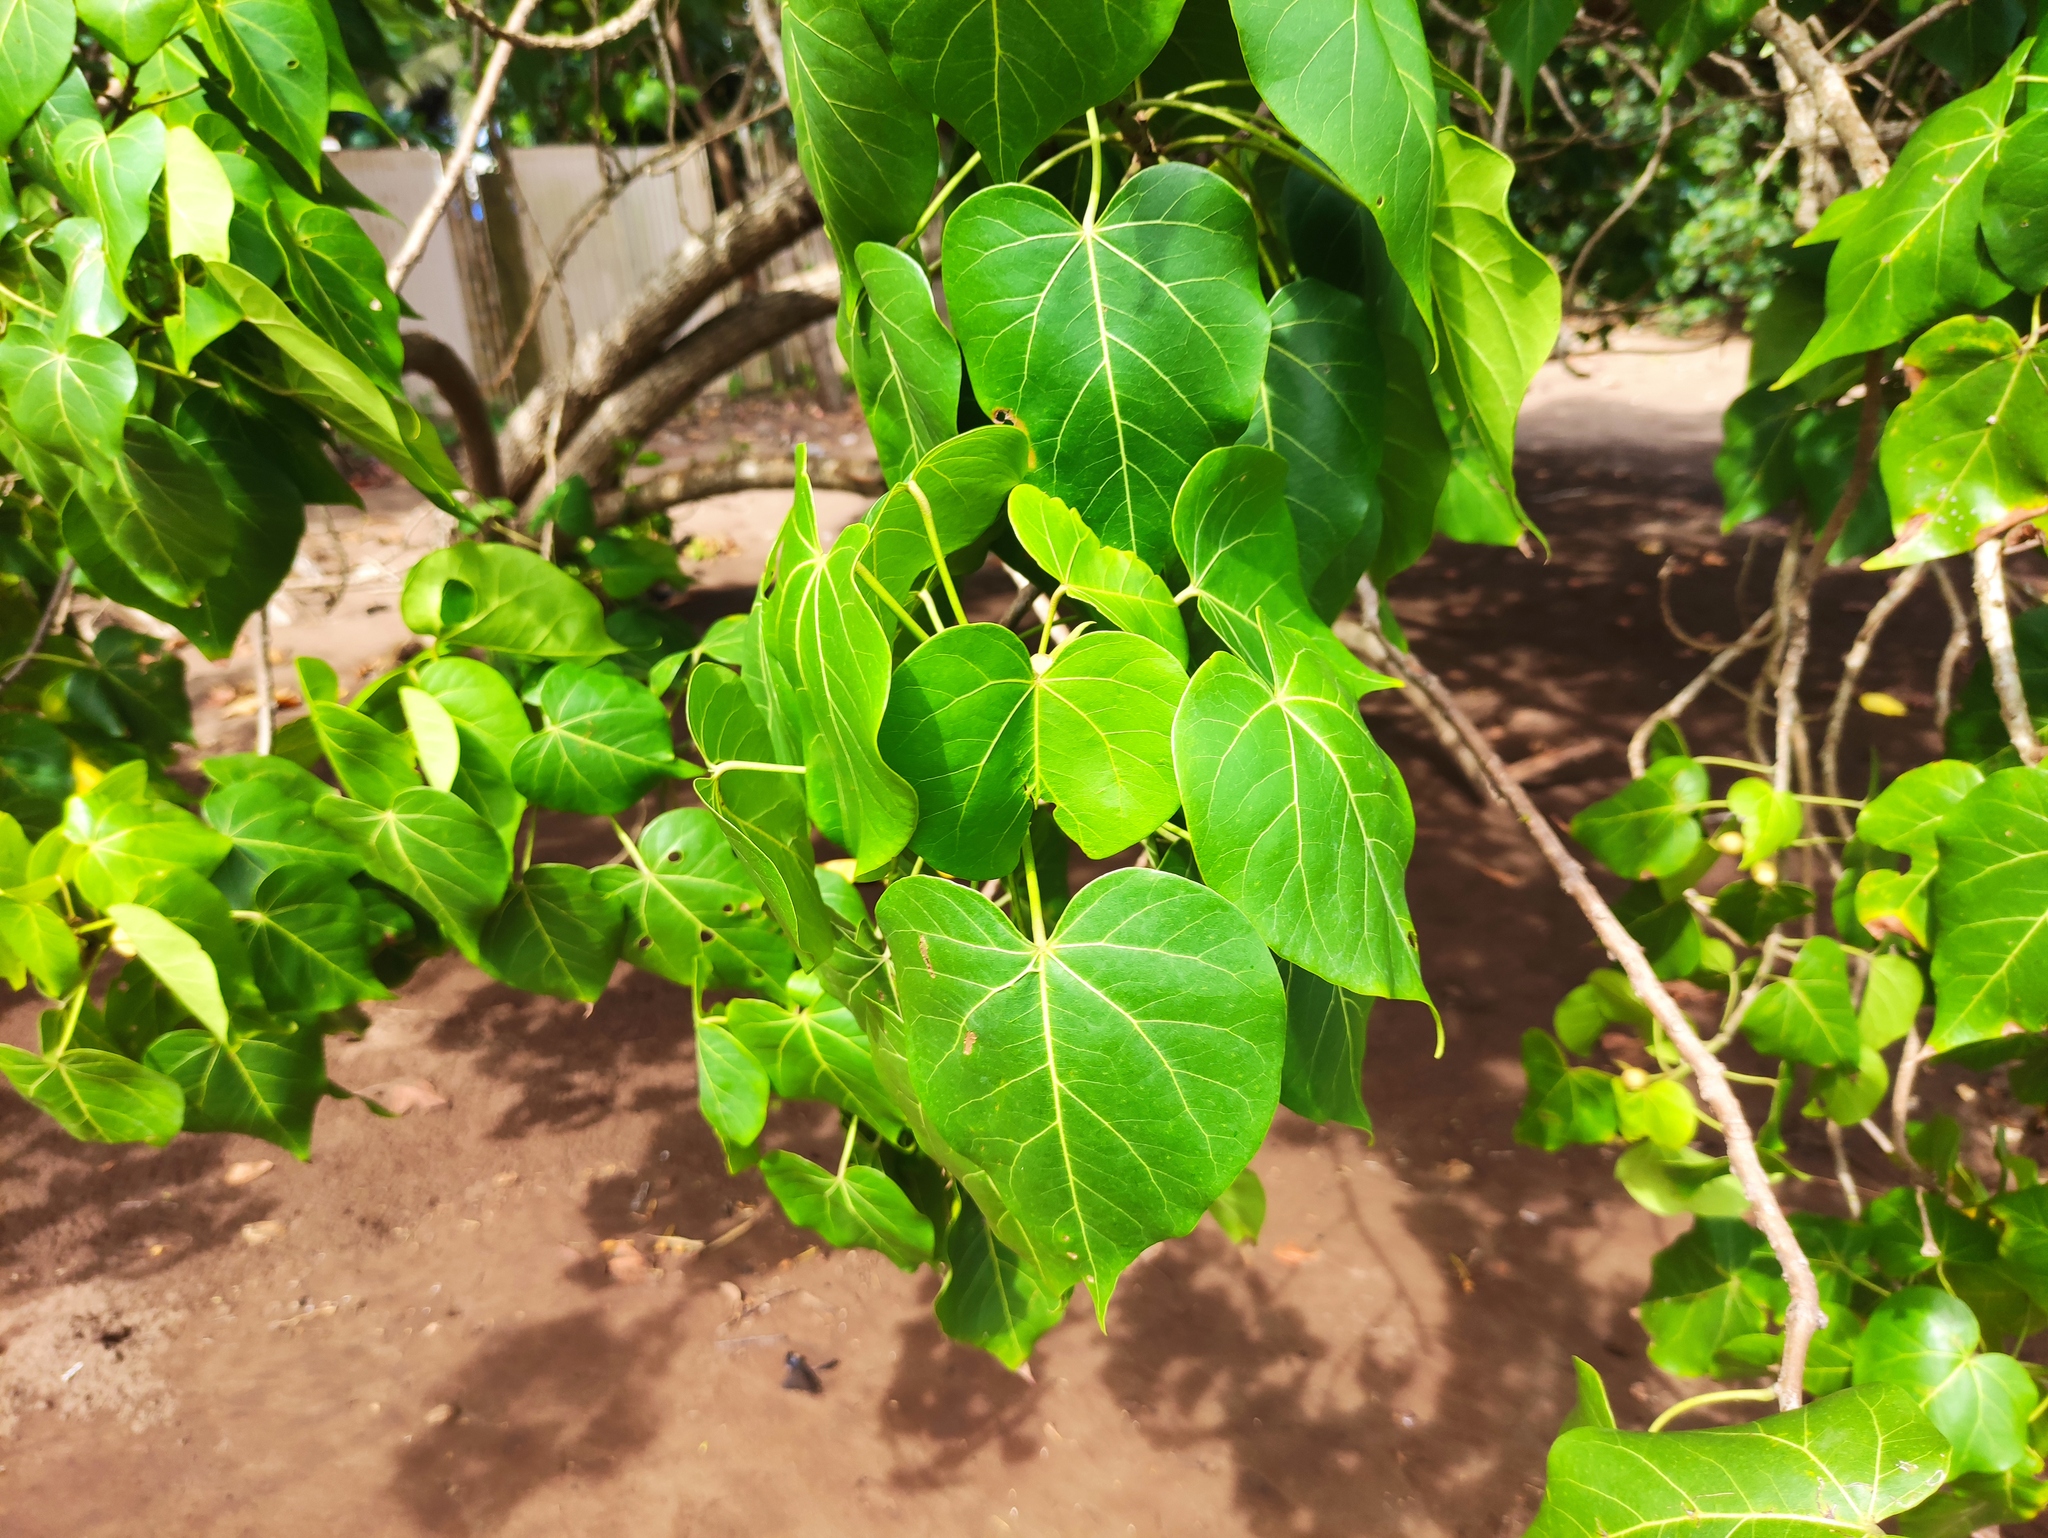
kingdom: Plantae
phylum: Tracheophyta
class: Magnoliopsida
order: Malvales
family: Malvaceae
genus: Thespesia
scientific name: Thespesia populnea
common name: Seaside mahoe
